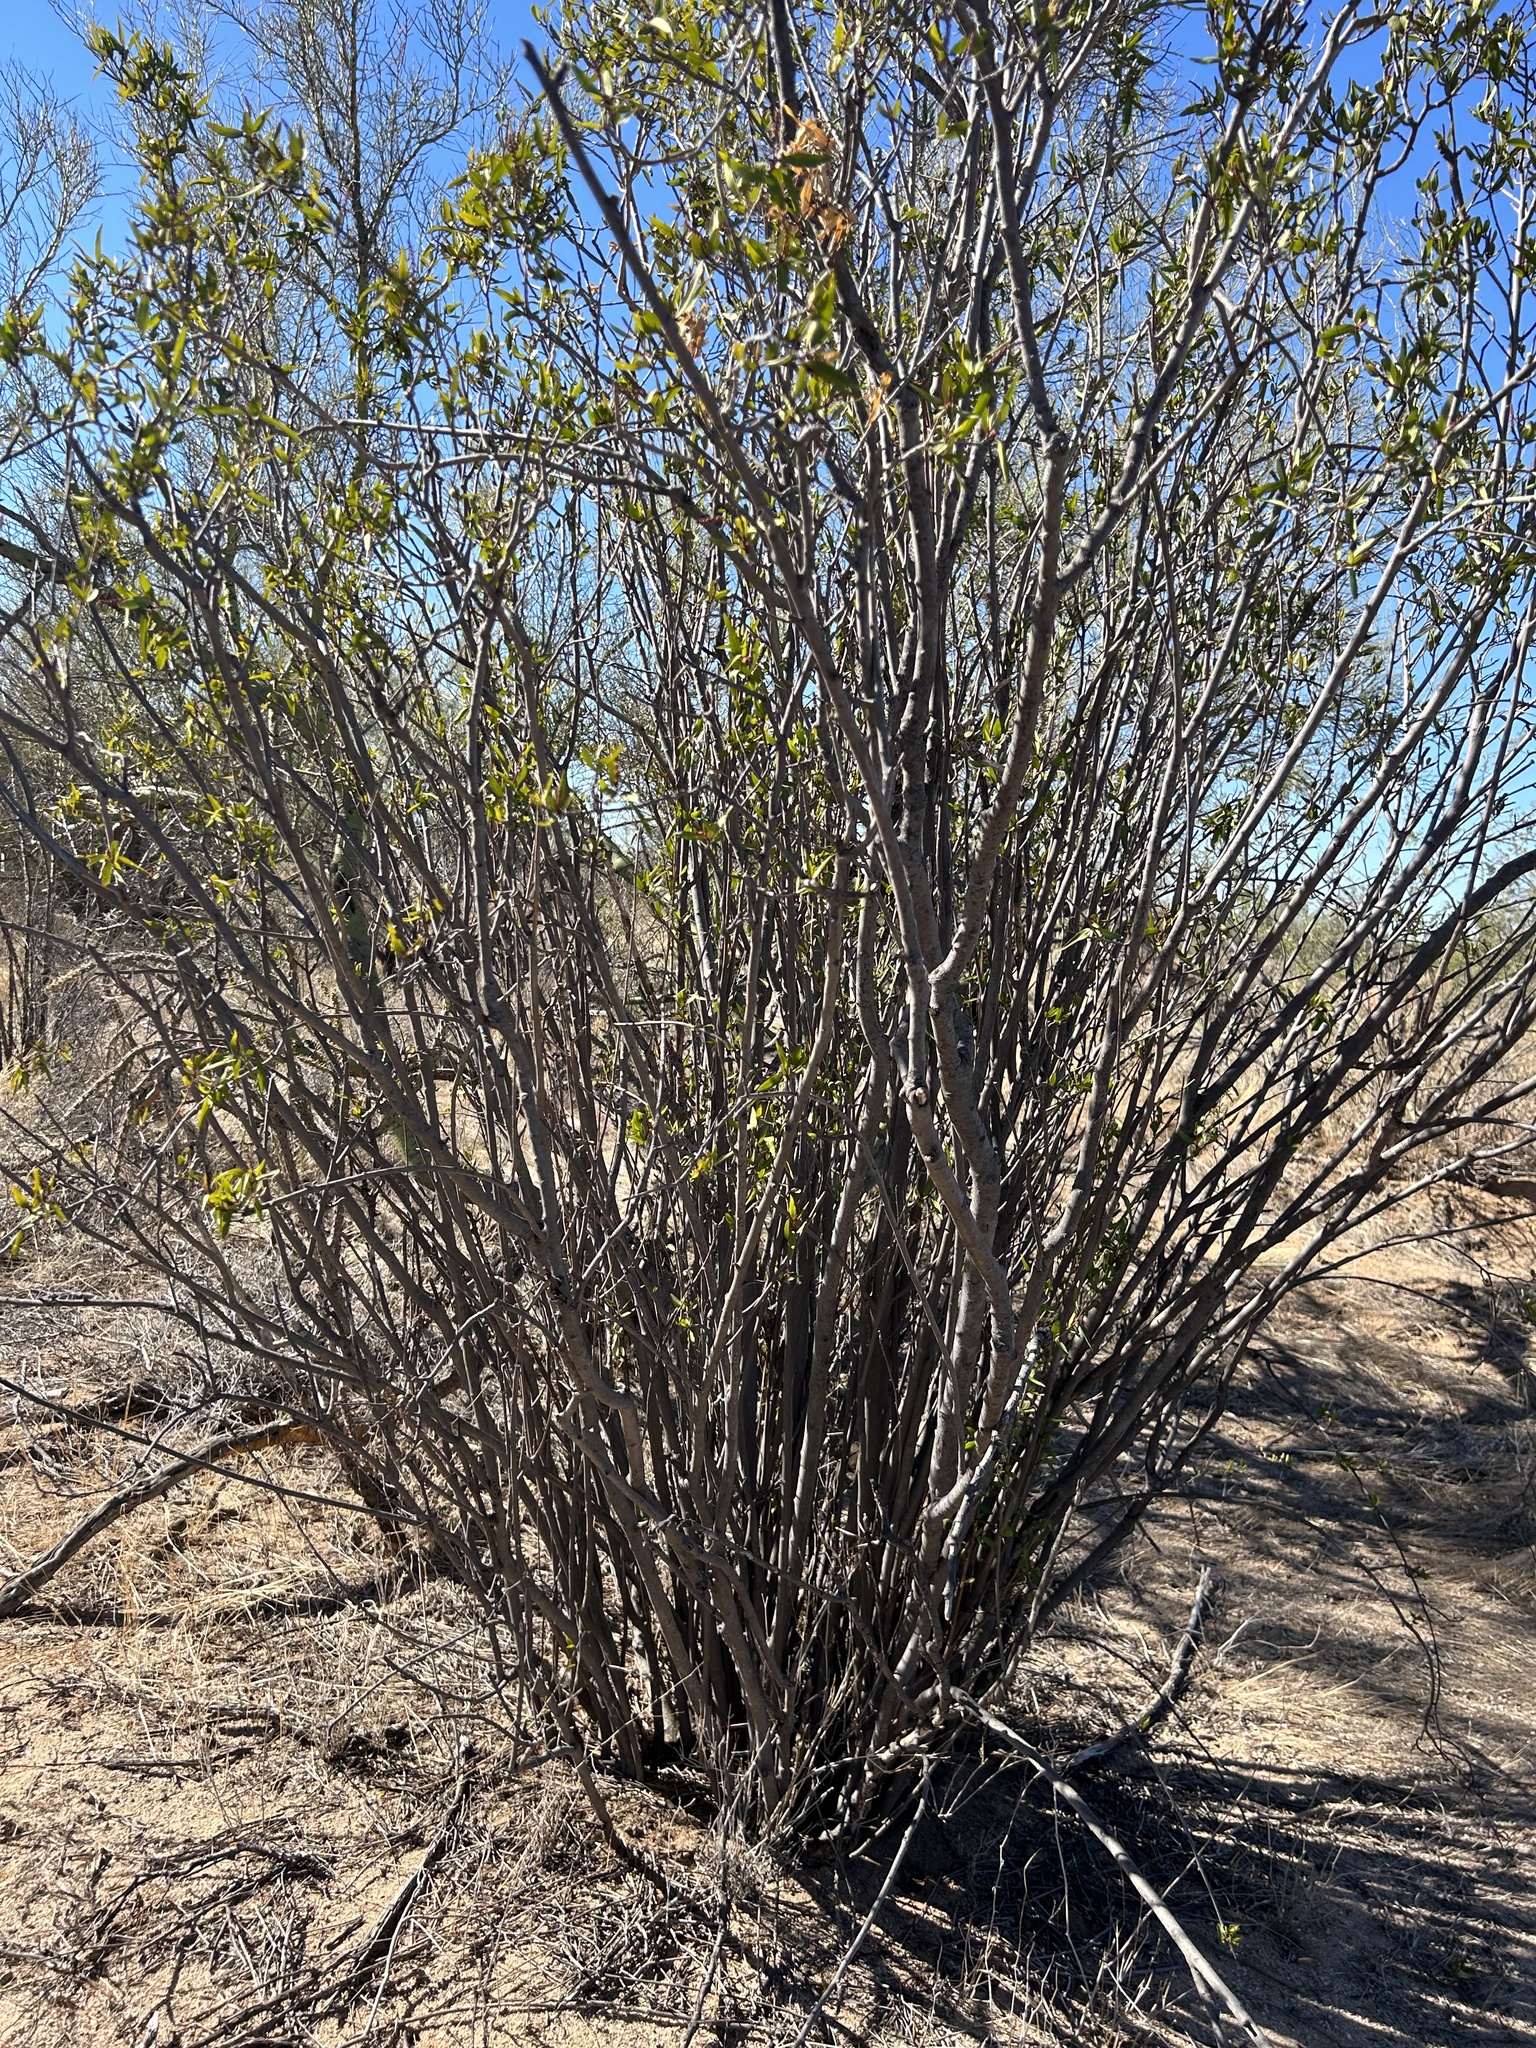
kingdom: Plantae
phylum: Tracheophyta
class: Magnoliopsida
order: Malpighiales
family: Euphorbiaceae
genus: Pleradenophora
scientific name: Pleradenophora bilocularis
